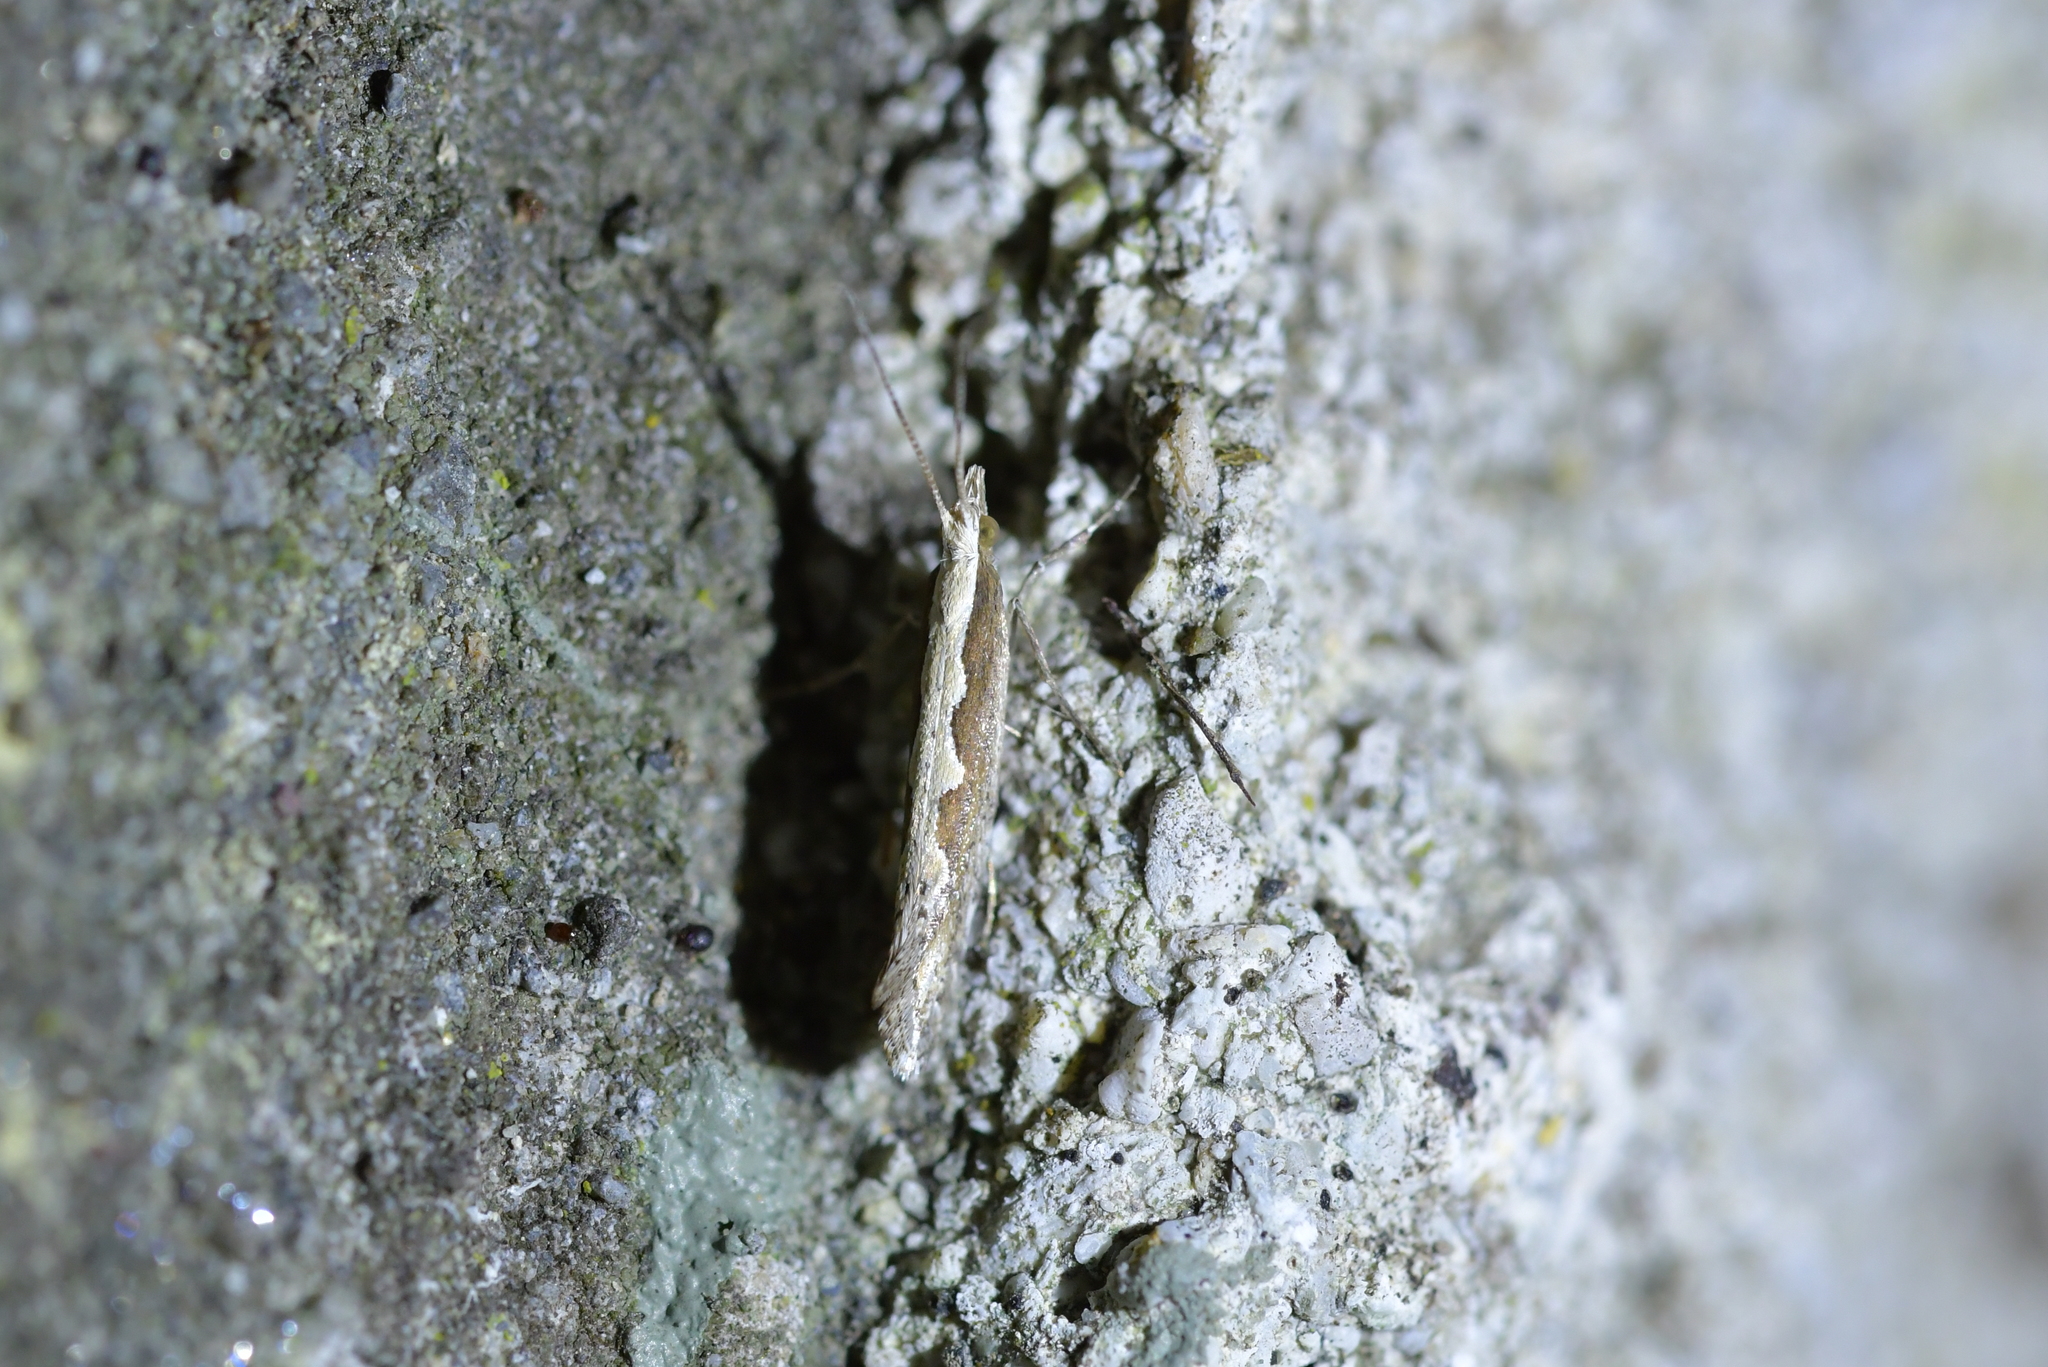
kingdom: Animalia
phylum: Arthropoda
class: Insecta
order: Lepidoptera
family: Plutellidae
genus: Plutella
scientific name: Plutella xylostella
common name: Diamond-back moth
